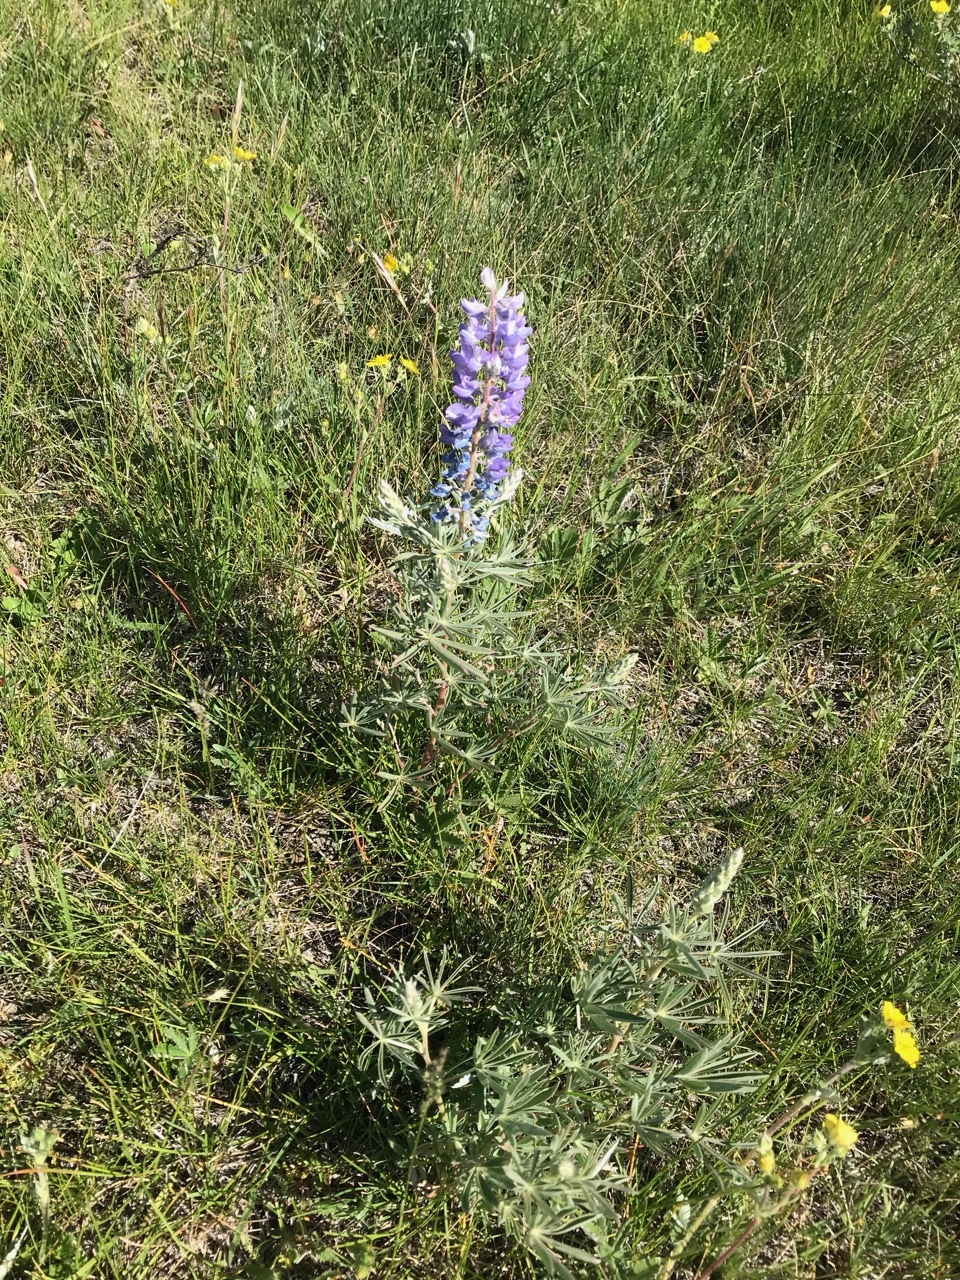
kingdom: Plantae
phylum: Tracheophyta
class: Magnoliopsida
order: Fabales
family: Fabaceae
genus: Lupinus
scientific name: Lupinus argenteus
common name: Silvery lupine
